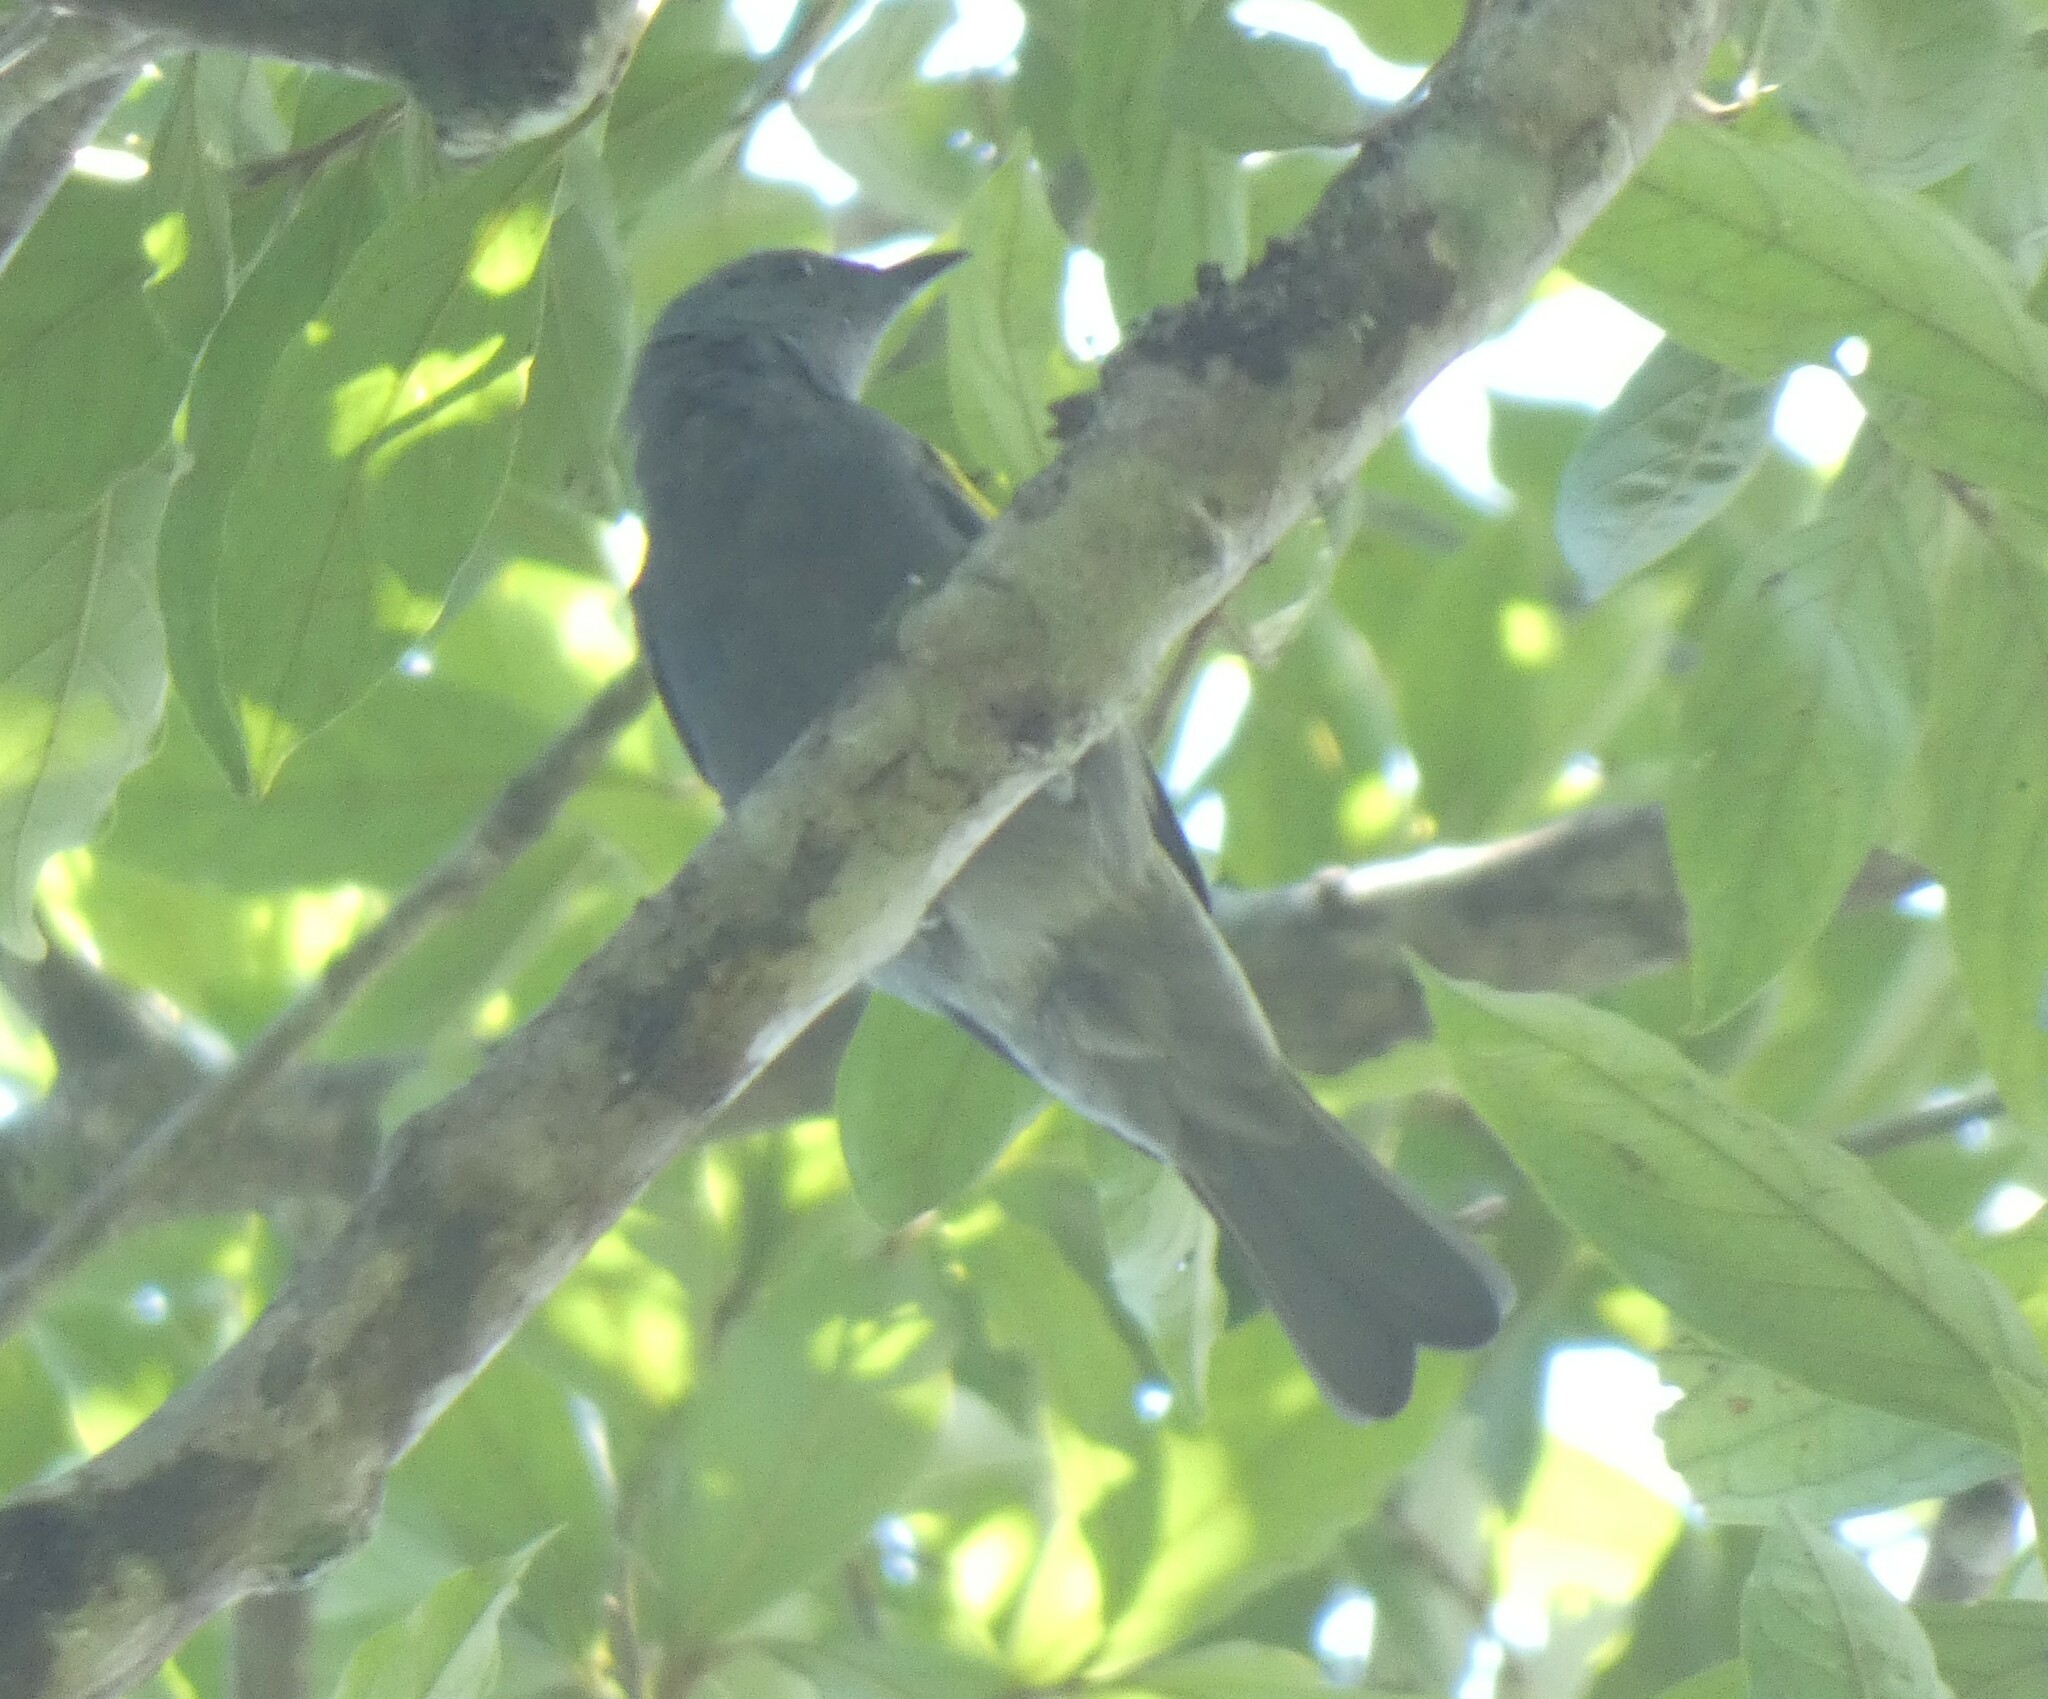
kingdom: Animalia
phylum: Chordata
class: Aves
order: Passeriformes
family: Thraupidae
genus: Thraupis
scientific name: Thraupis ornata
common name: Golden-chevroned tanager
